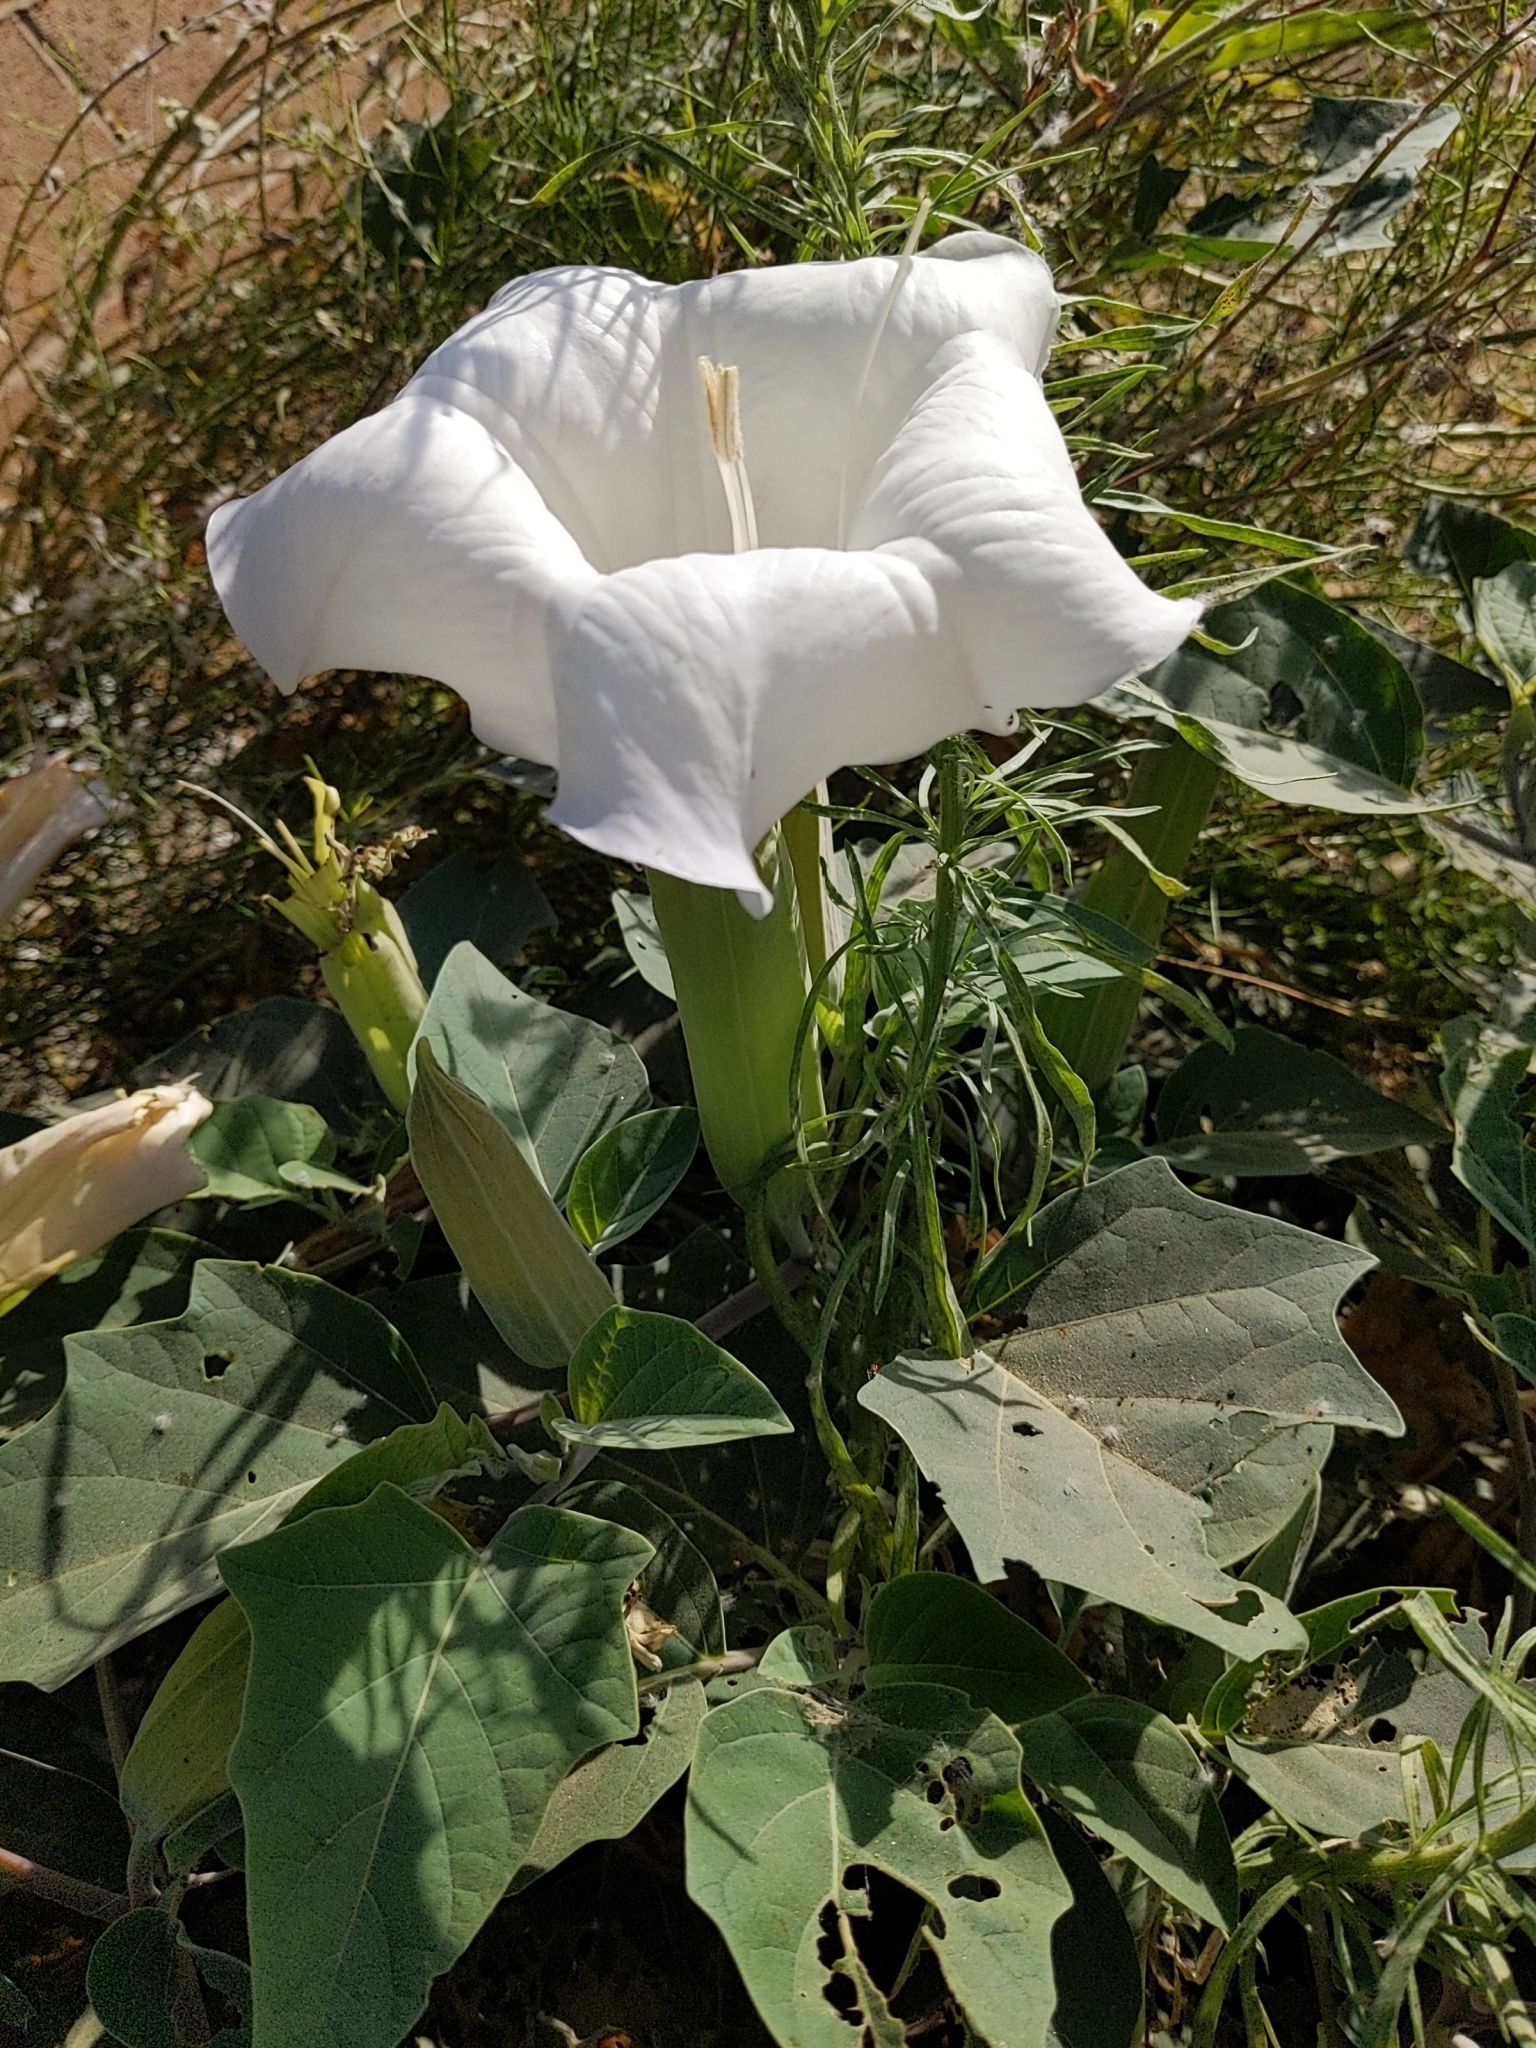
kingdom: Plantae
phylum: Tracheophyta
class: Magnoliopsida
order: Solanales
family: Solanaceae
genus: Datura
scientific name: Datura wrightii
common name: Sacred thorn-apple
